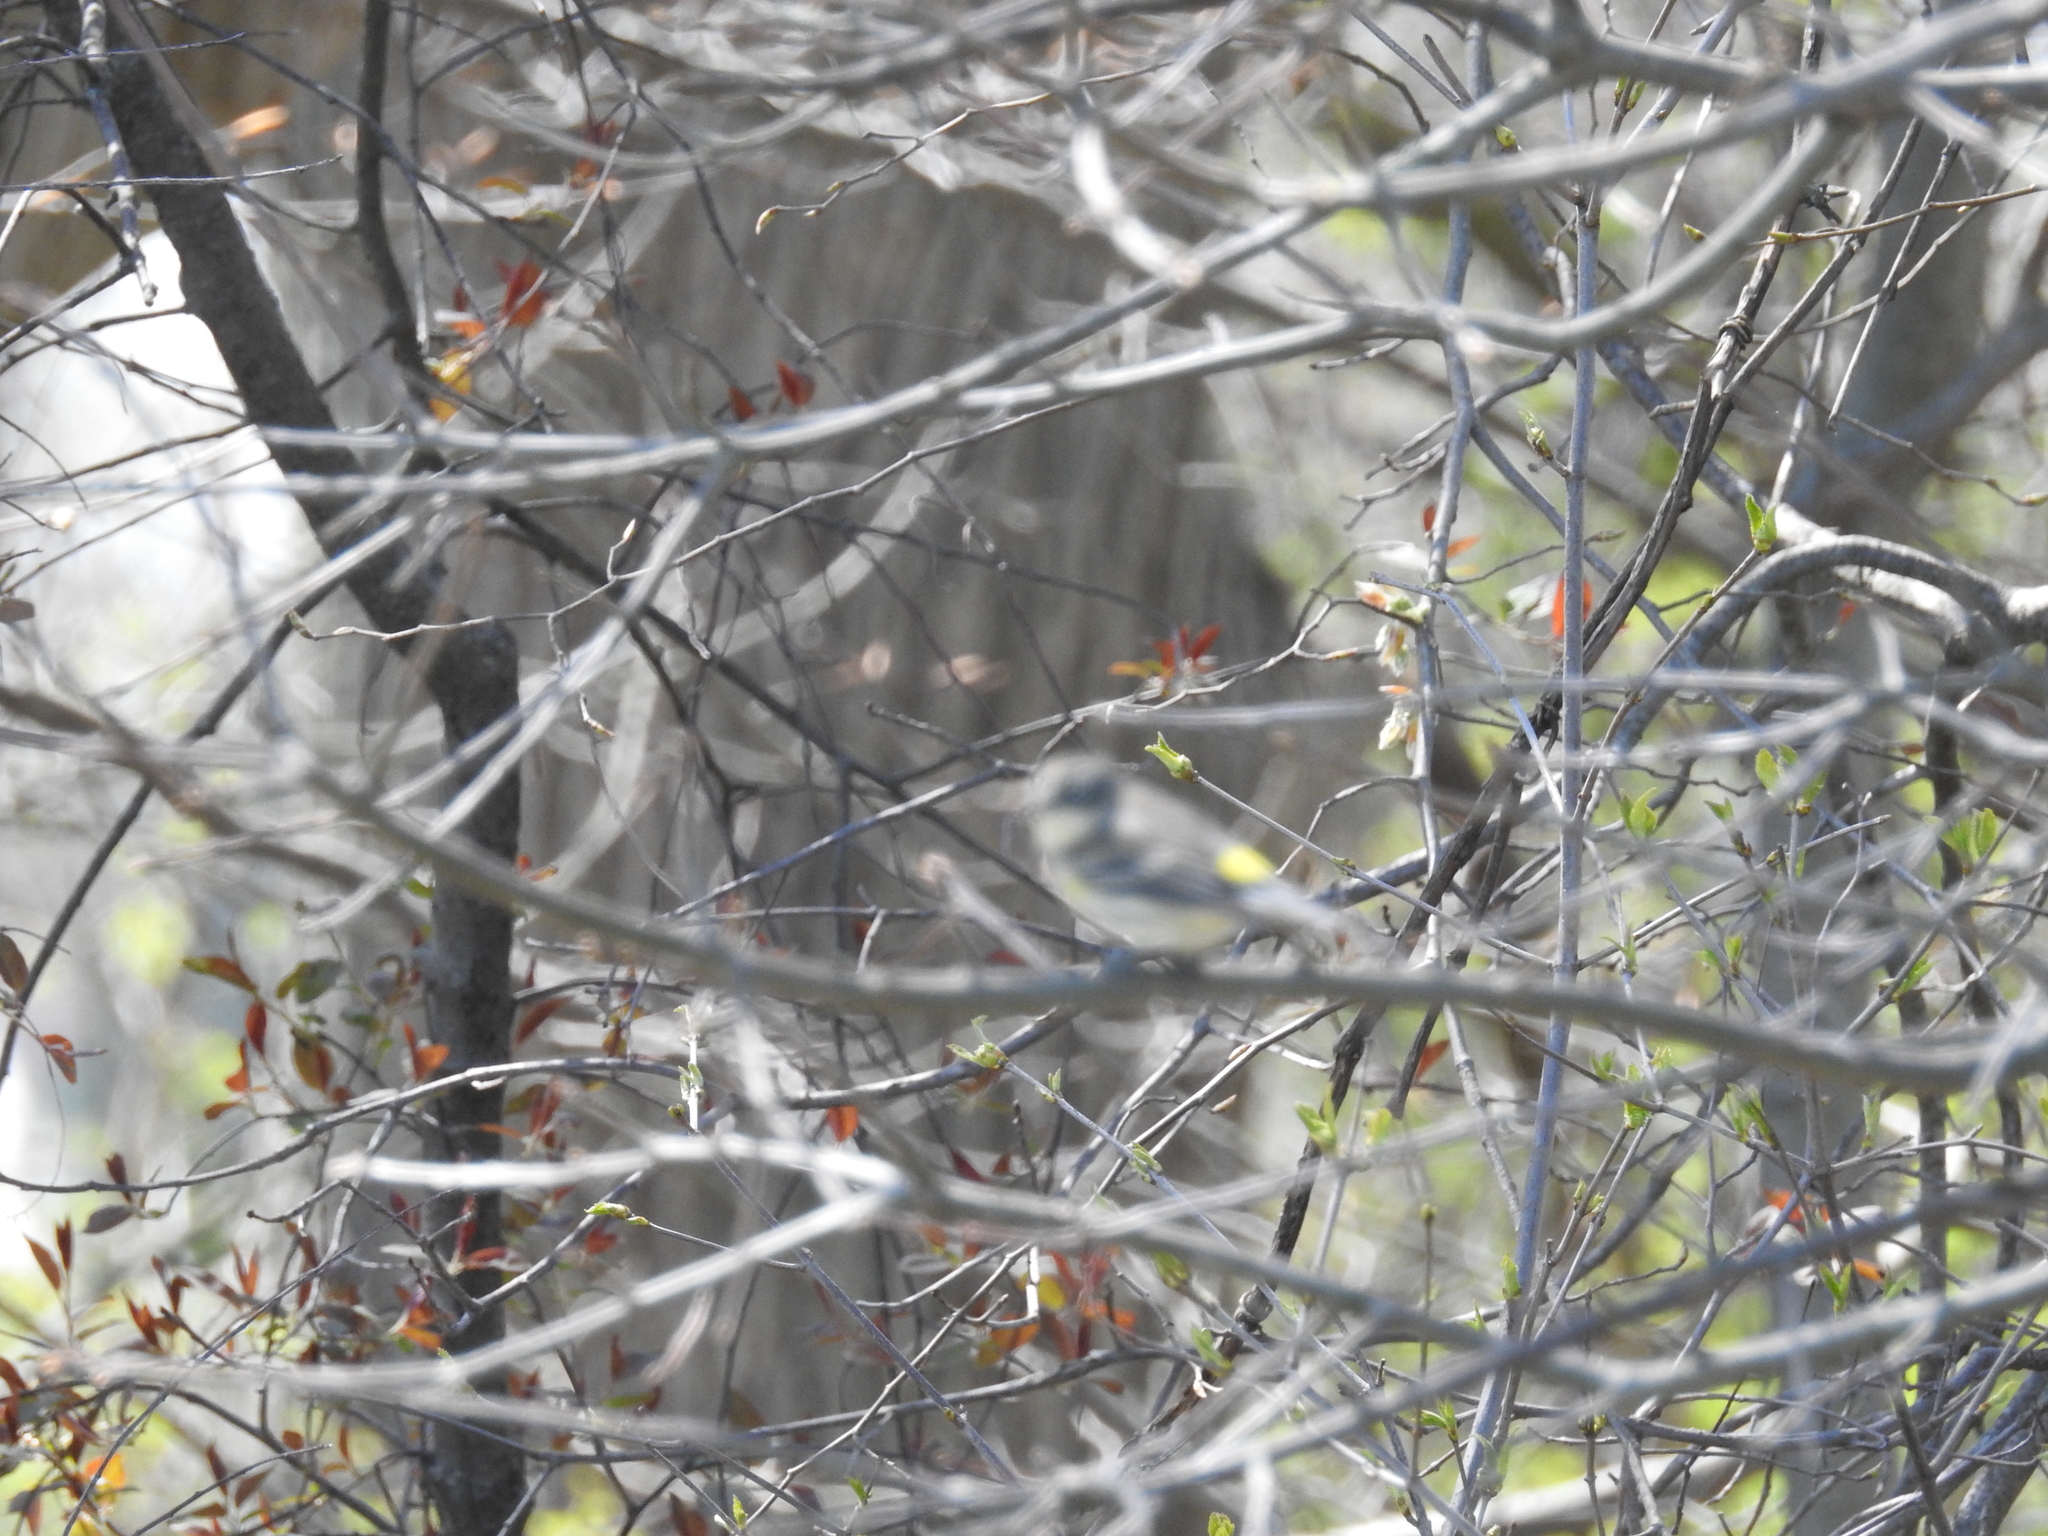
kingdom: Animalia
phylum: Chordata
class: Aves
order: Passeriformes
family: Parulidae
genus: Setophaga
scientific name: Setophaga coronata
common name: Myrtle warbler
